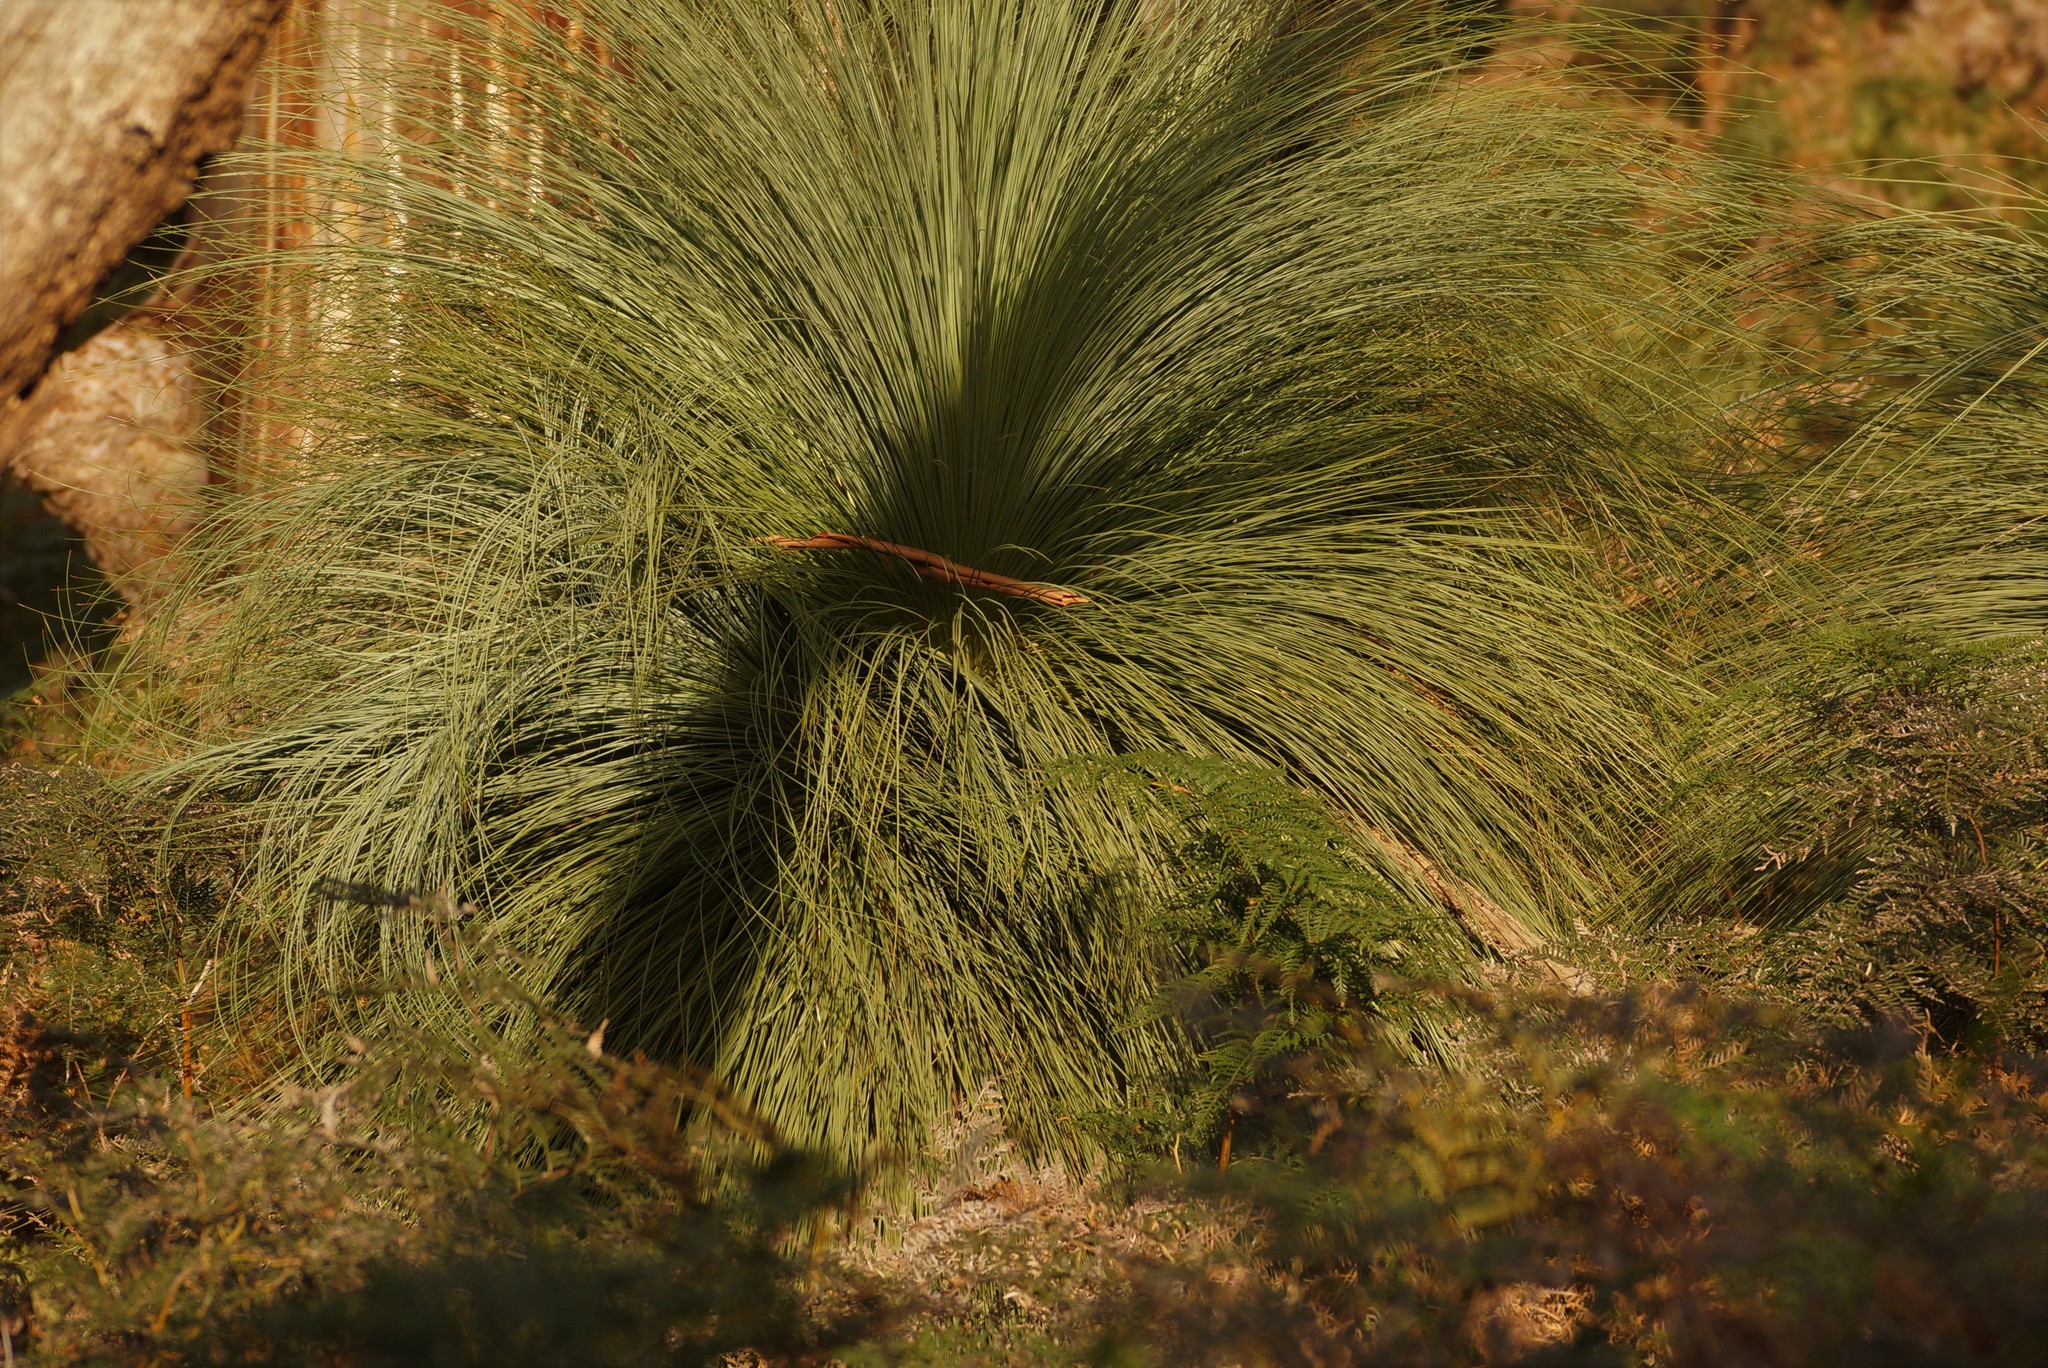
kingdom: Plantae
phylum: Tracheophyta
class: Liliopsida
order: Asparagales
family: Asphodelaceae
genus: Xanthorrhoea
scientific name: Xanthorrhoea australis
